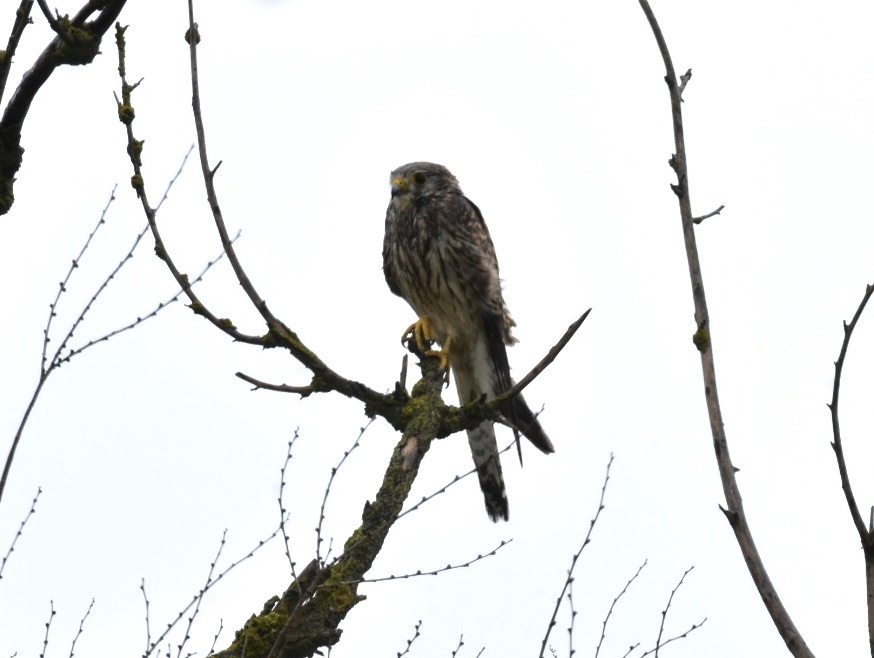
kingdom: Animalia
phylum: Chordata
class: Aves
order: Falconiformes
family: Falconidae
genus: Falco
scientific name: Falco vespertinus
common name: Red-footed falcon
